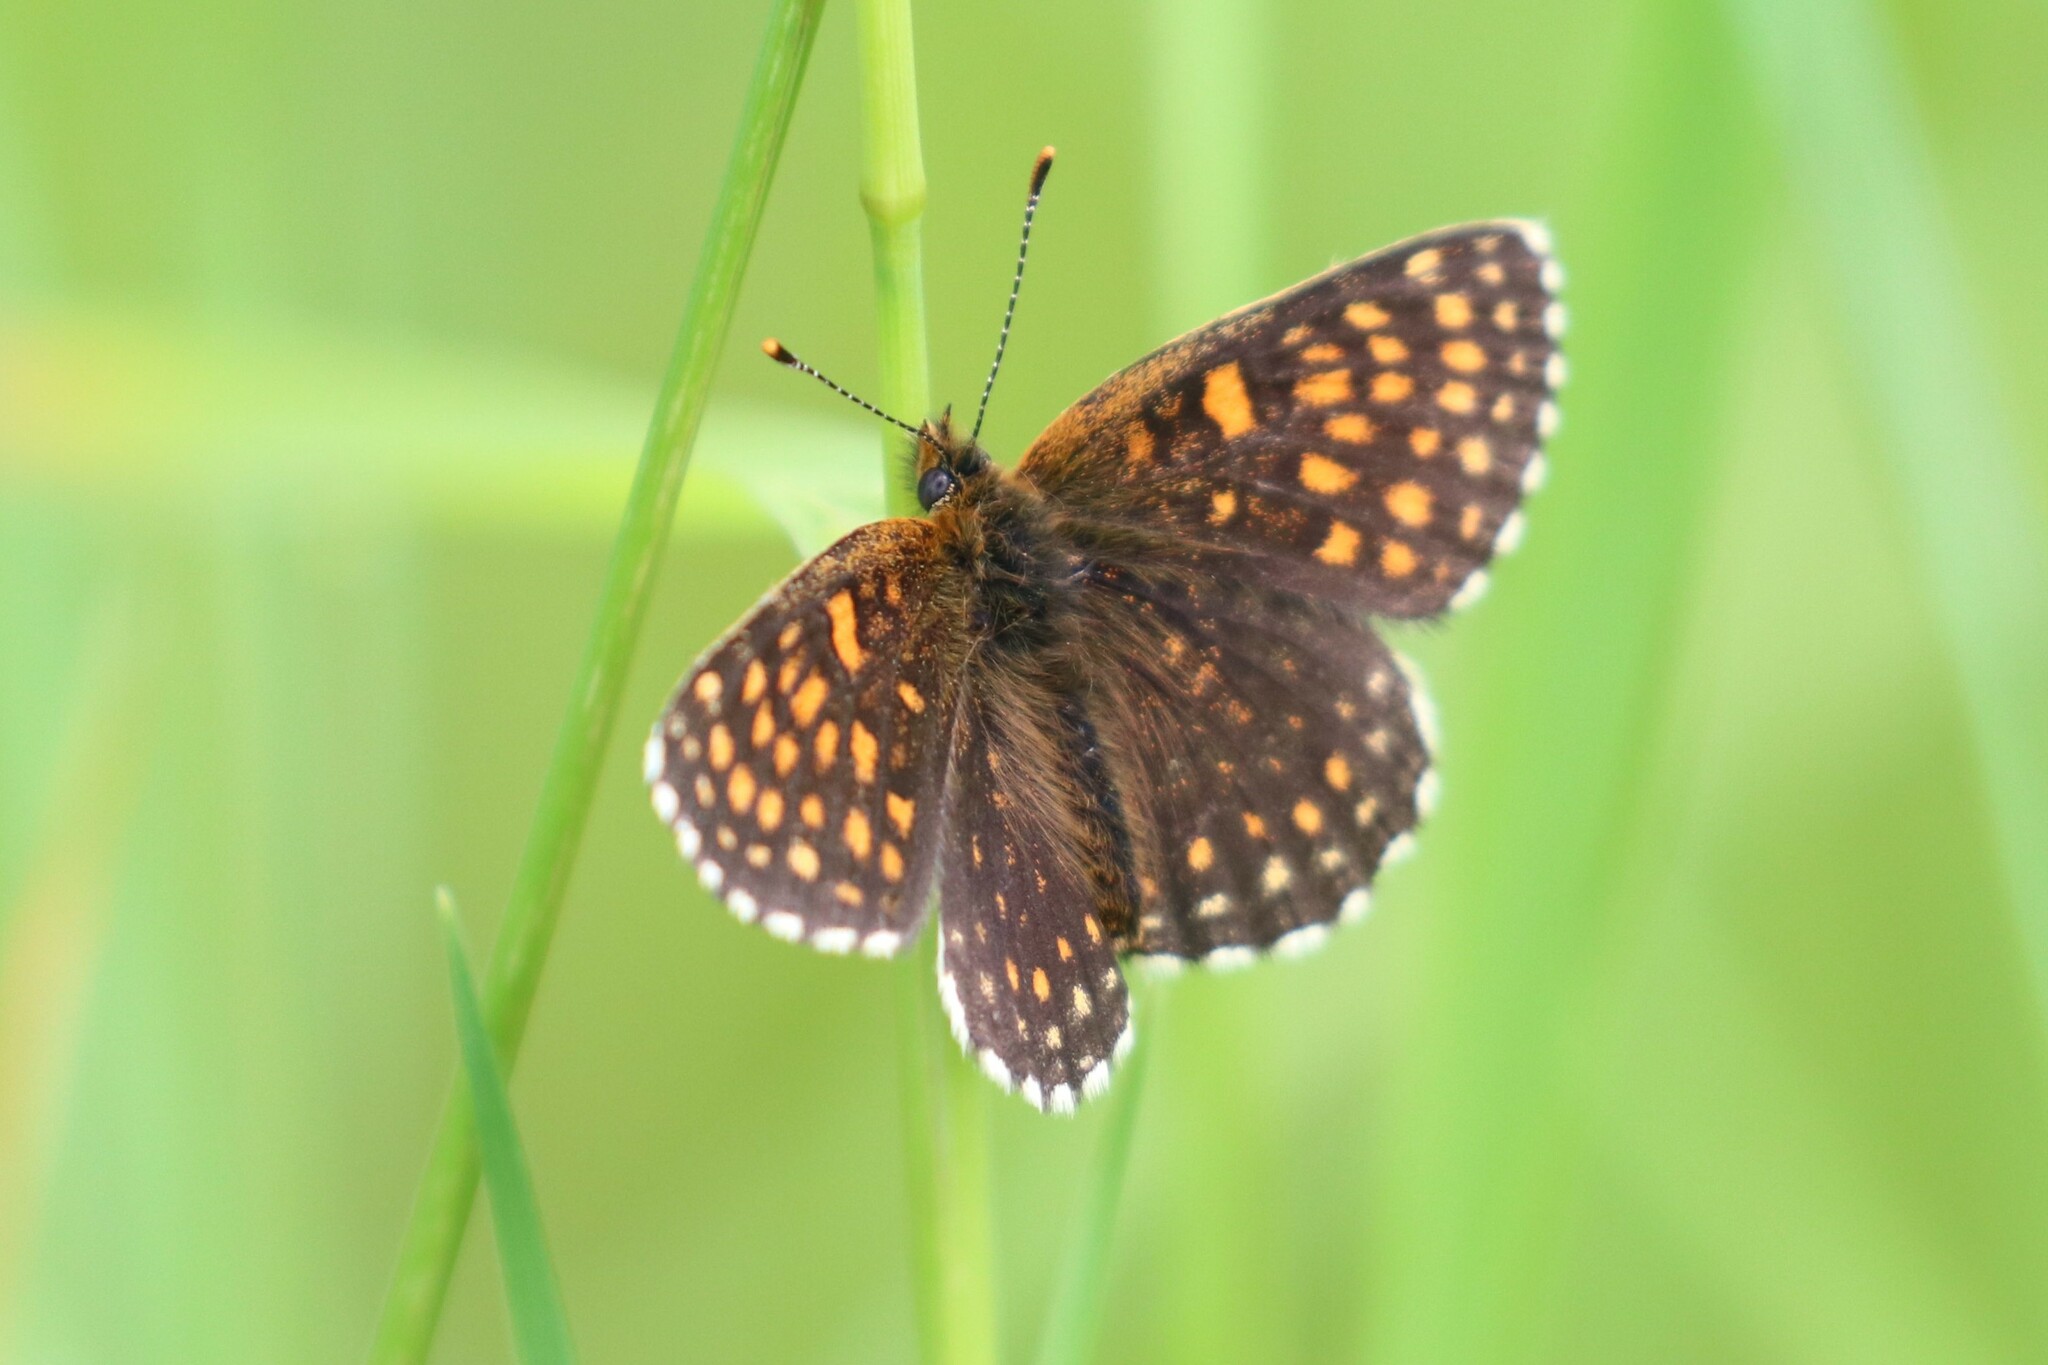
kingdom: Animalia
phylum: Arthropoda
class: Insecta
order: Lepidoptera
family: Nymphalidae
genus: Melitaea
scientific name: Melitaea diamina
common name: False heath fritillary
